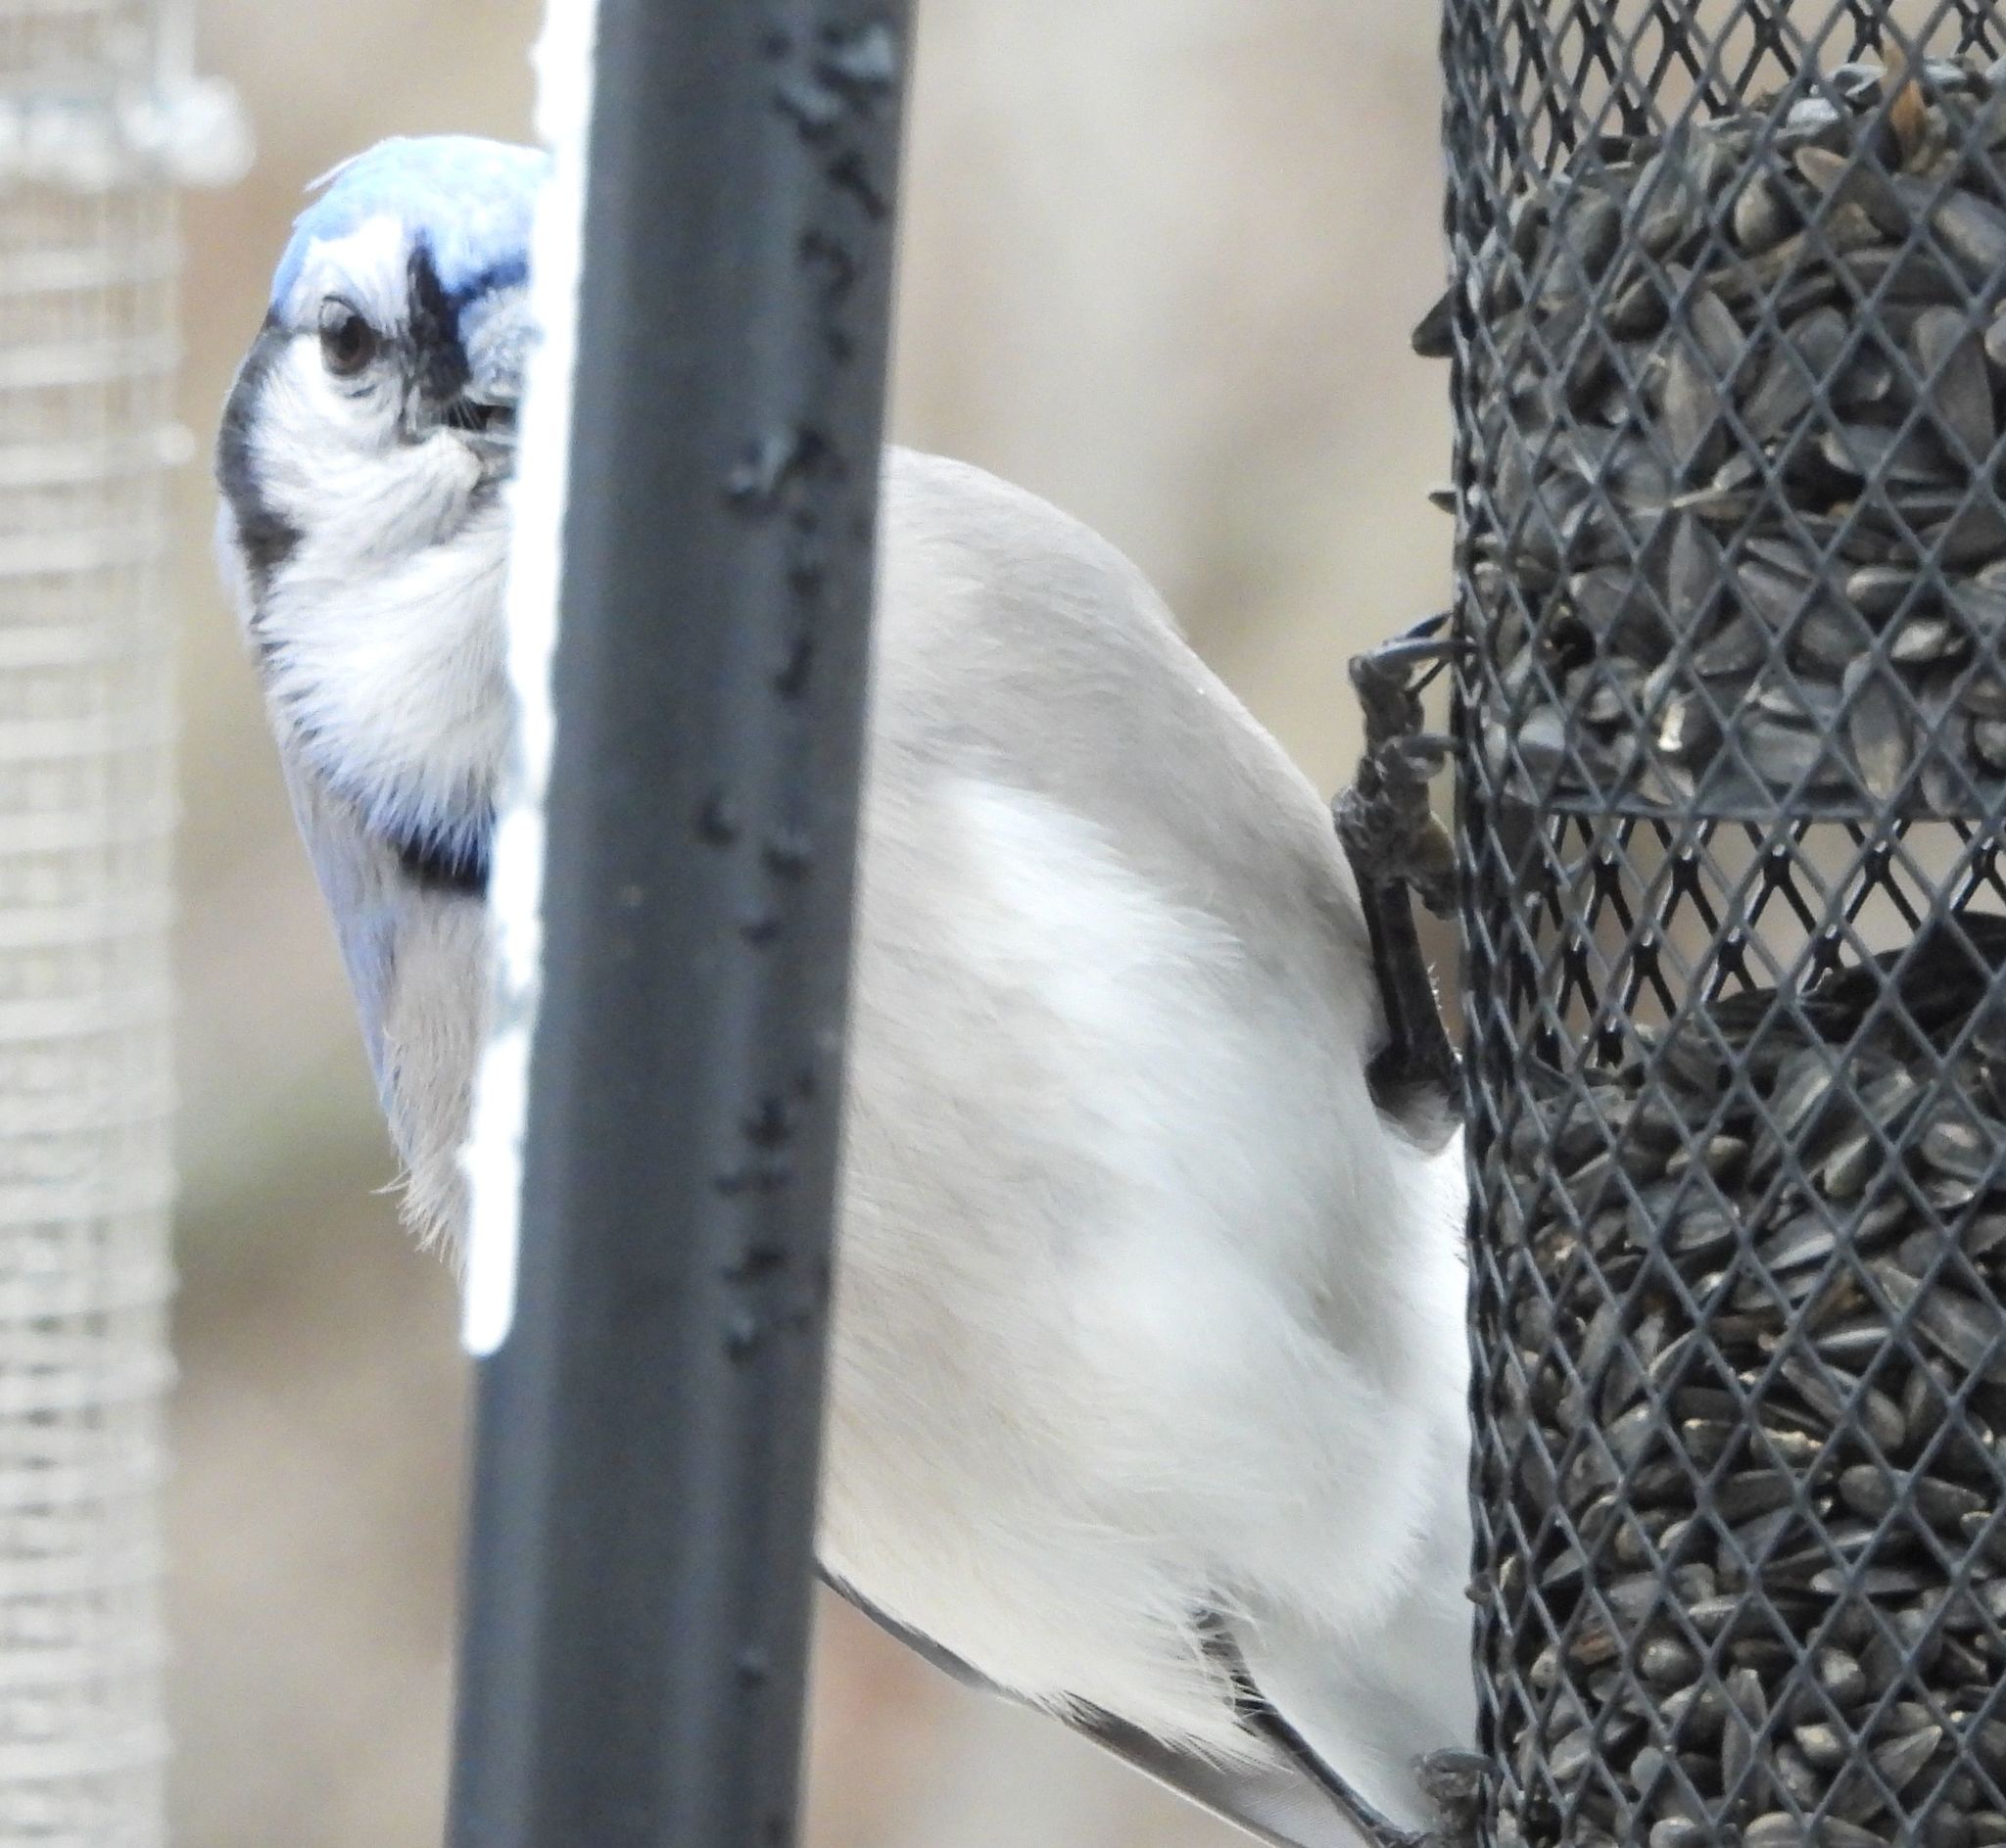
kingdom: Animalia
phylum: Chordata
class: Aves
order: Passeriformes
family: Corvidae
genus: Cyanocitta
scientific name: Cyanocitta cristata
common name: Blue jay
